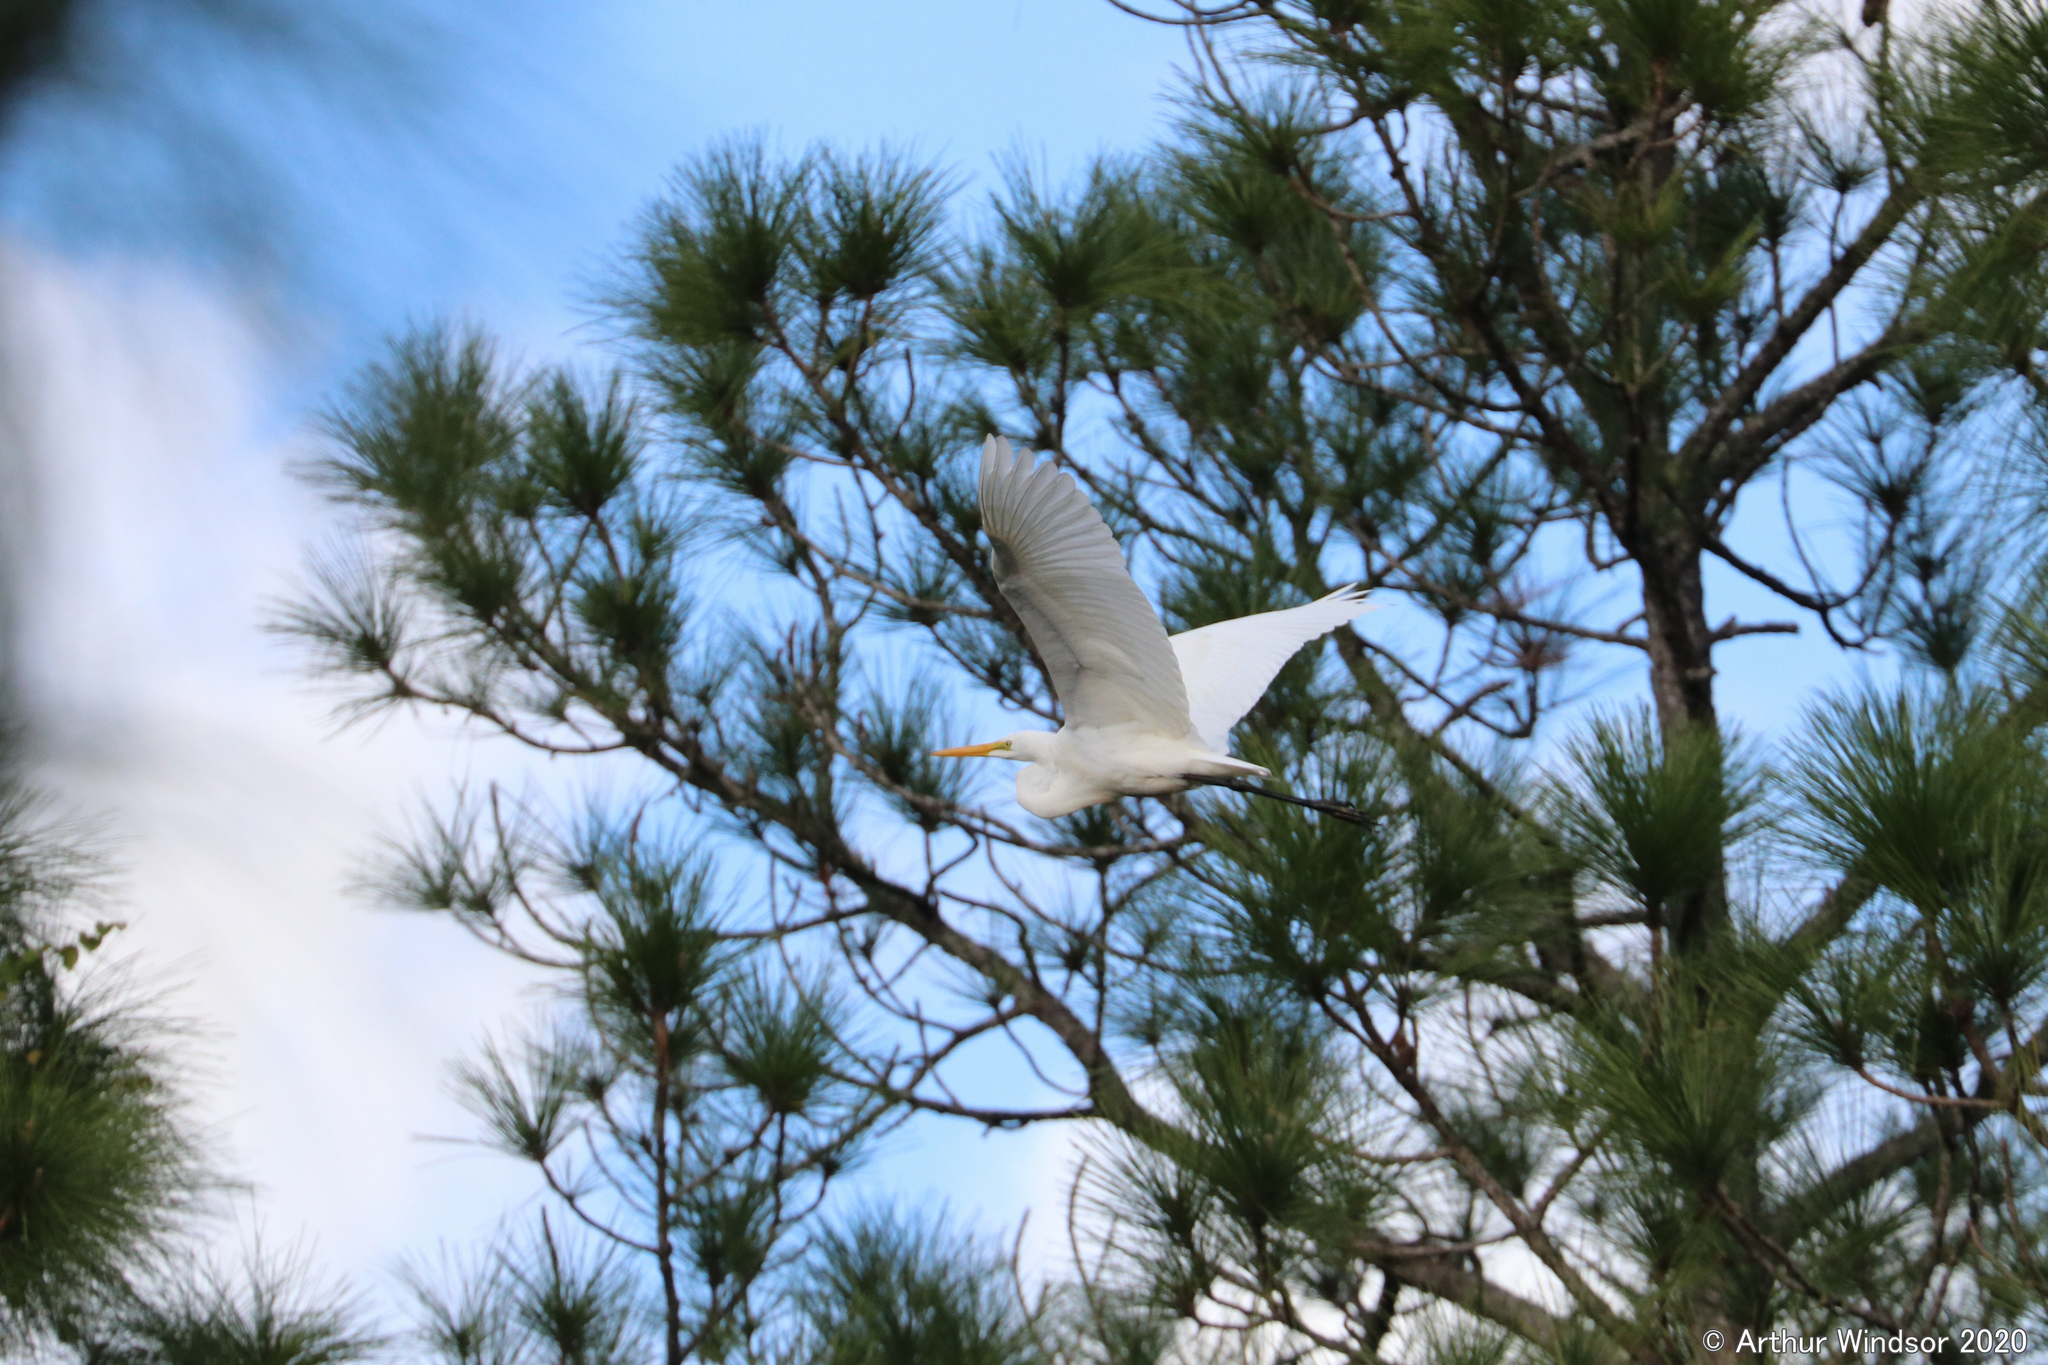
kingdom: Animalia
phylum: Chordata
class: Aves
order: Pelecaniformes
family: Ardeidae
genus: Ardea
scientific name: Ardea alba
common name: Great egret
